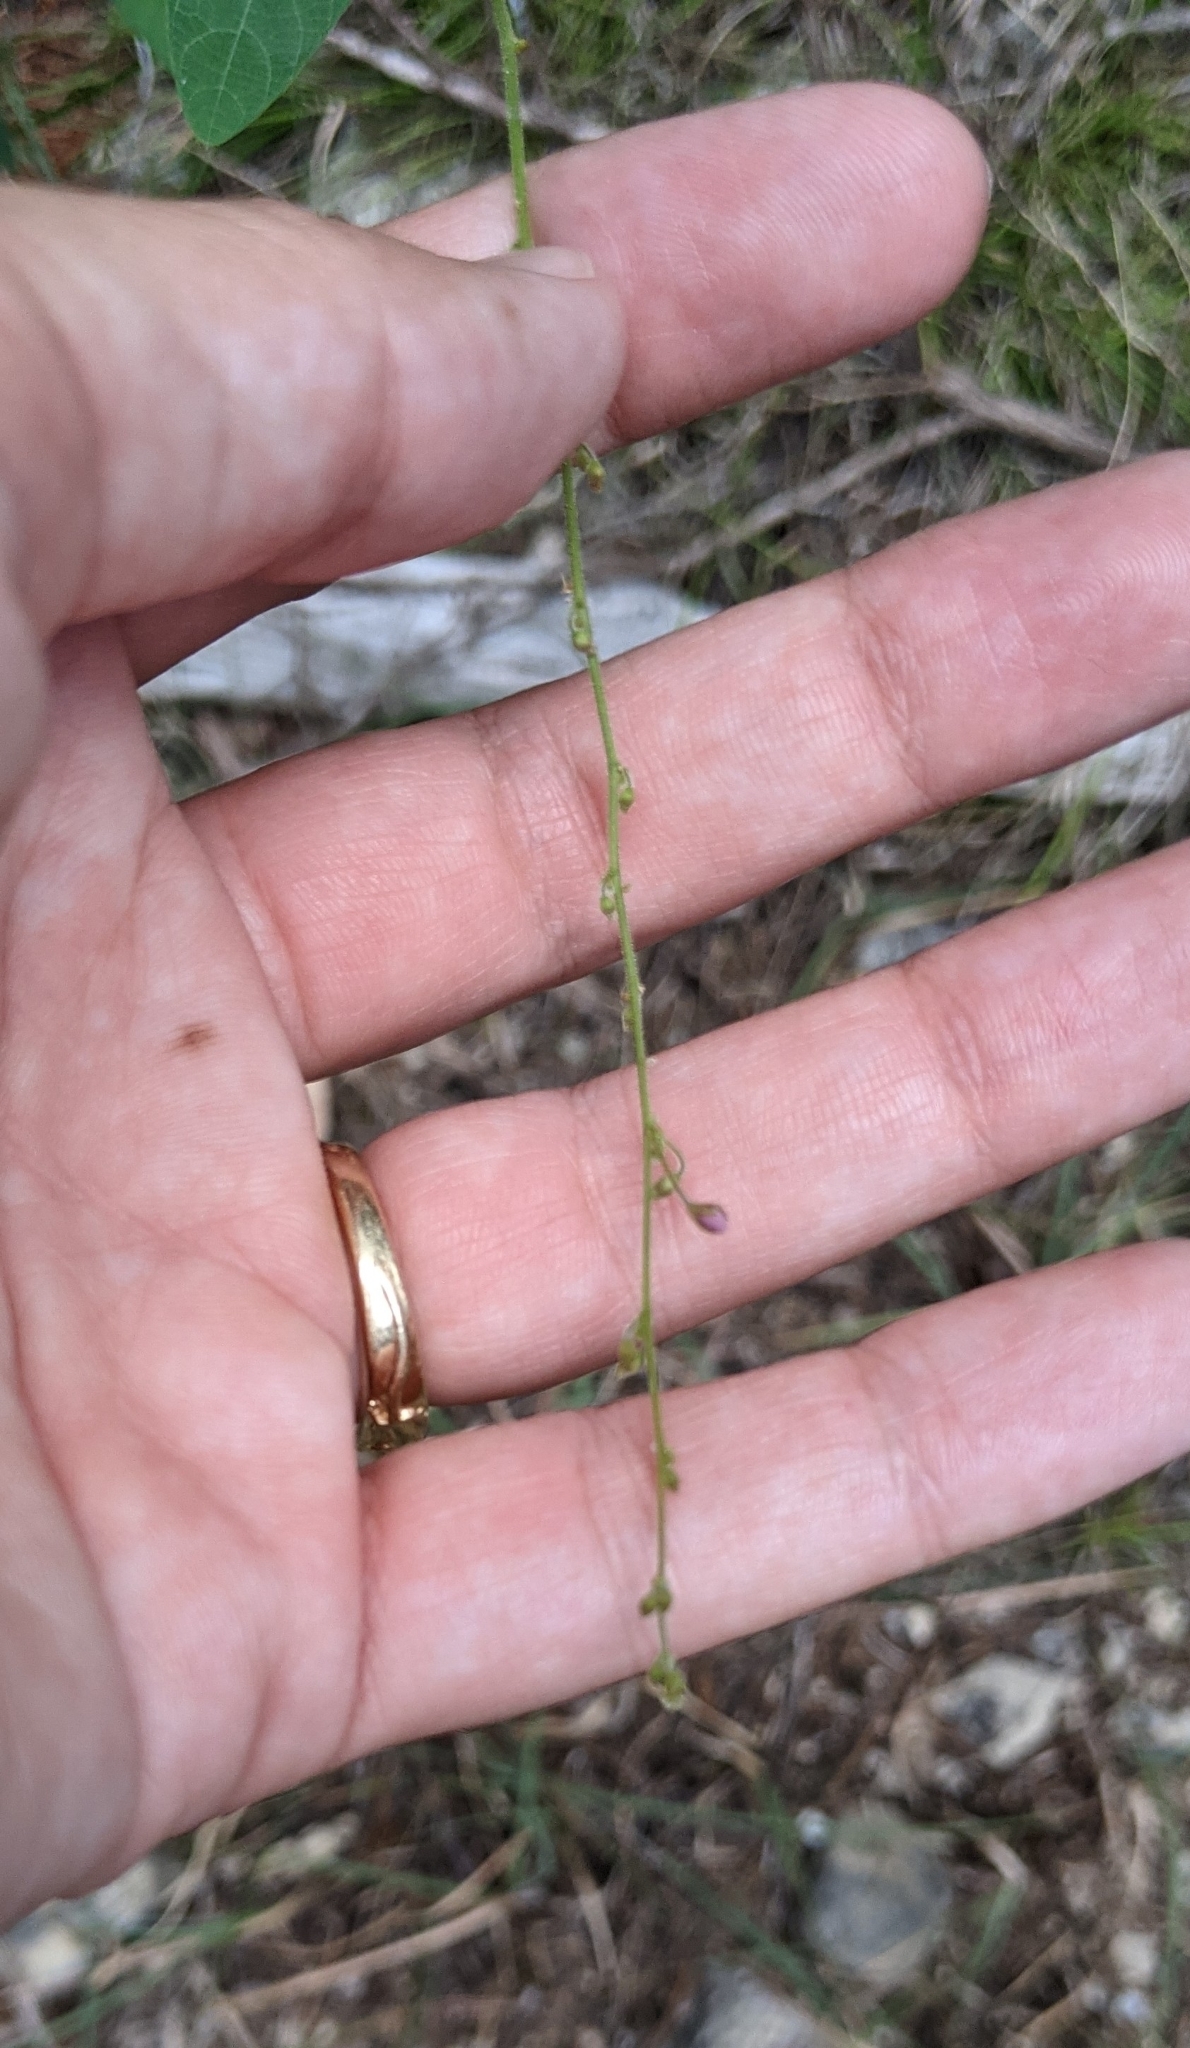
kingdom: Plantae
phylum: Tracheophyta
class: Magnoliopsida
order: Fabales
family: Fabaceae
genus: Desmodium
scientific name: Desmodium psilophyllum
